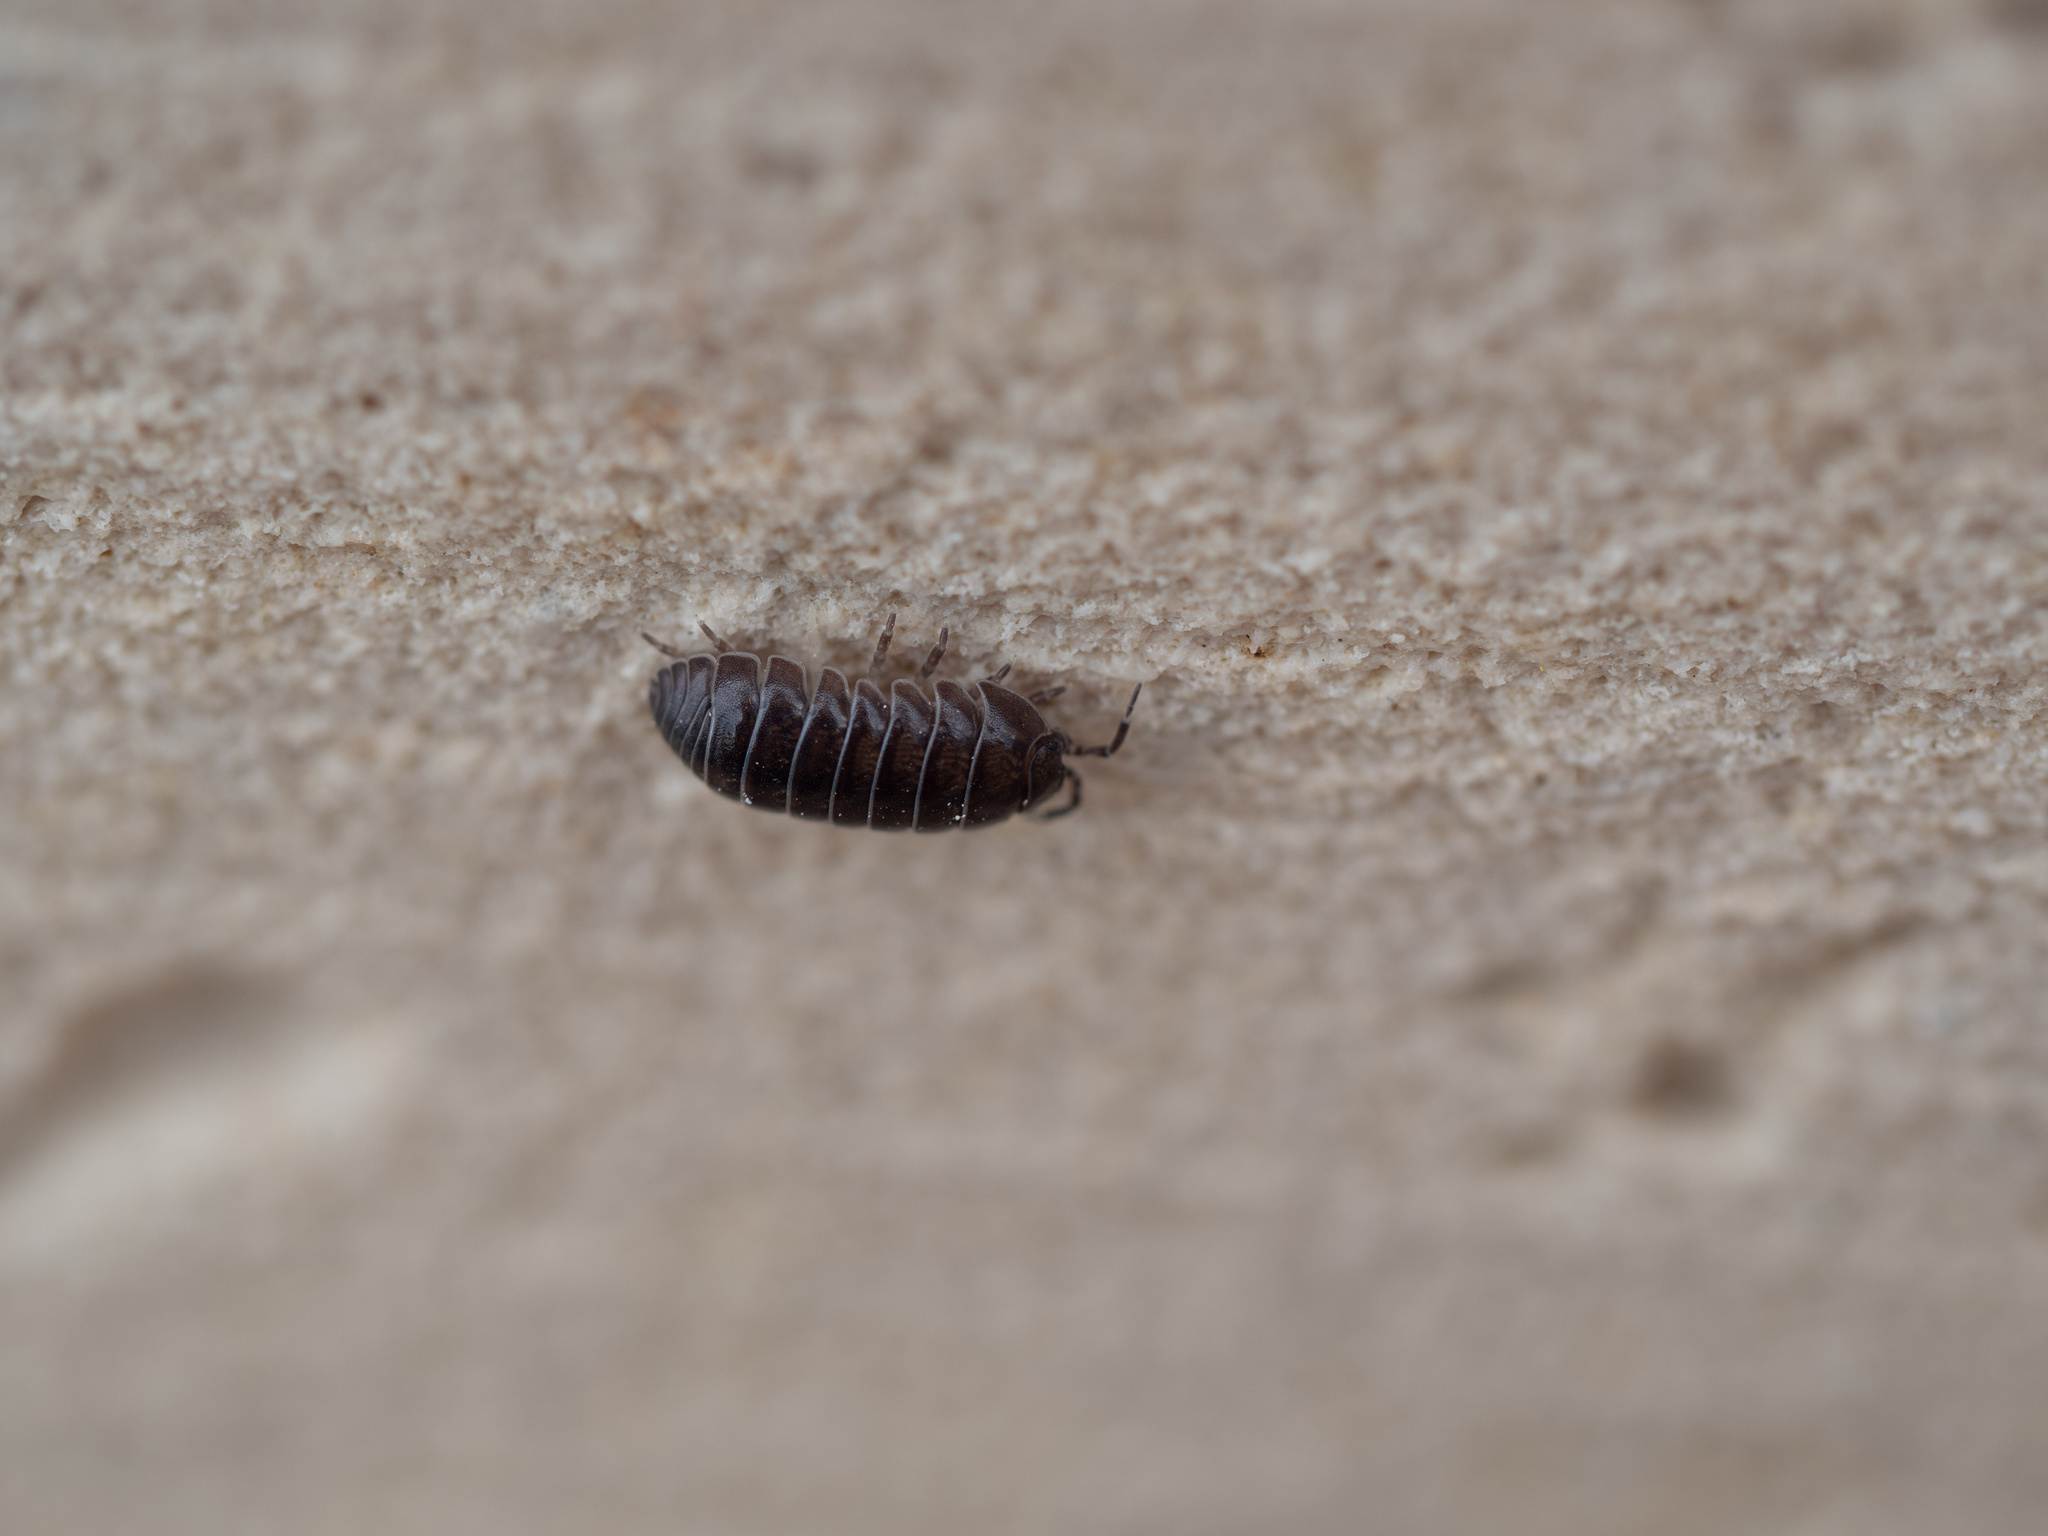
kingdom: Animalia
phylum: Arthropoda
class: Malacostraca
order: Isopoda
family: Armadillidiidae
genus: Armadillidium
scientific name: Armadillidium vulgare
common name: Common pill woodlouse
